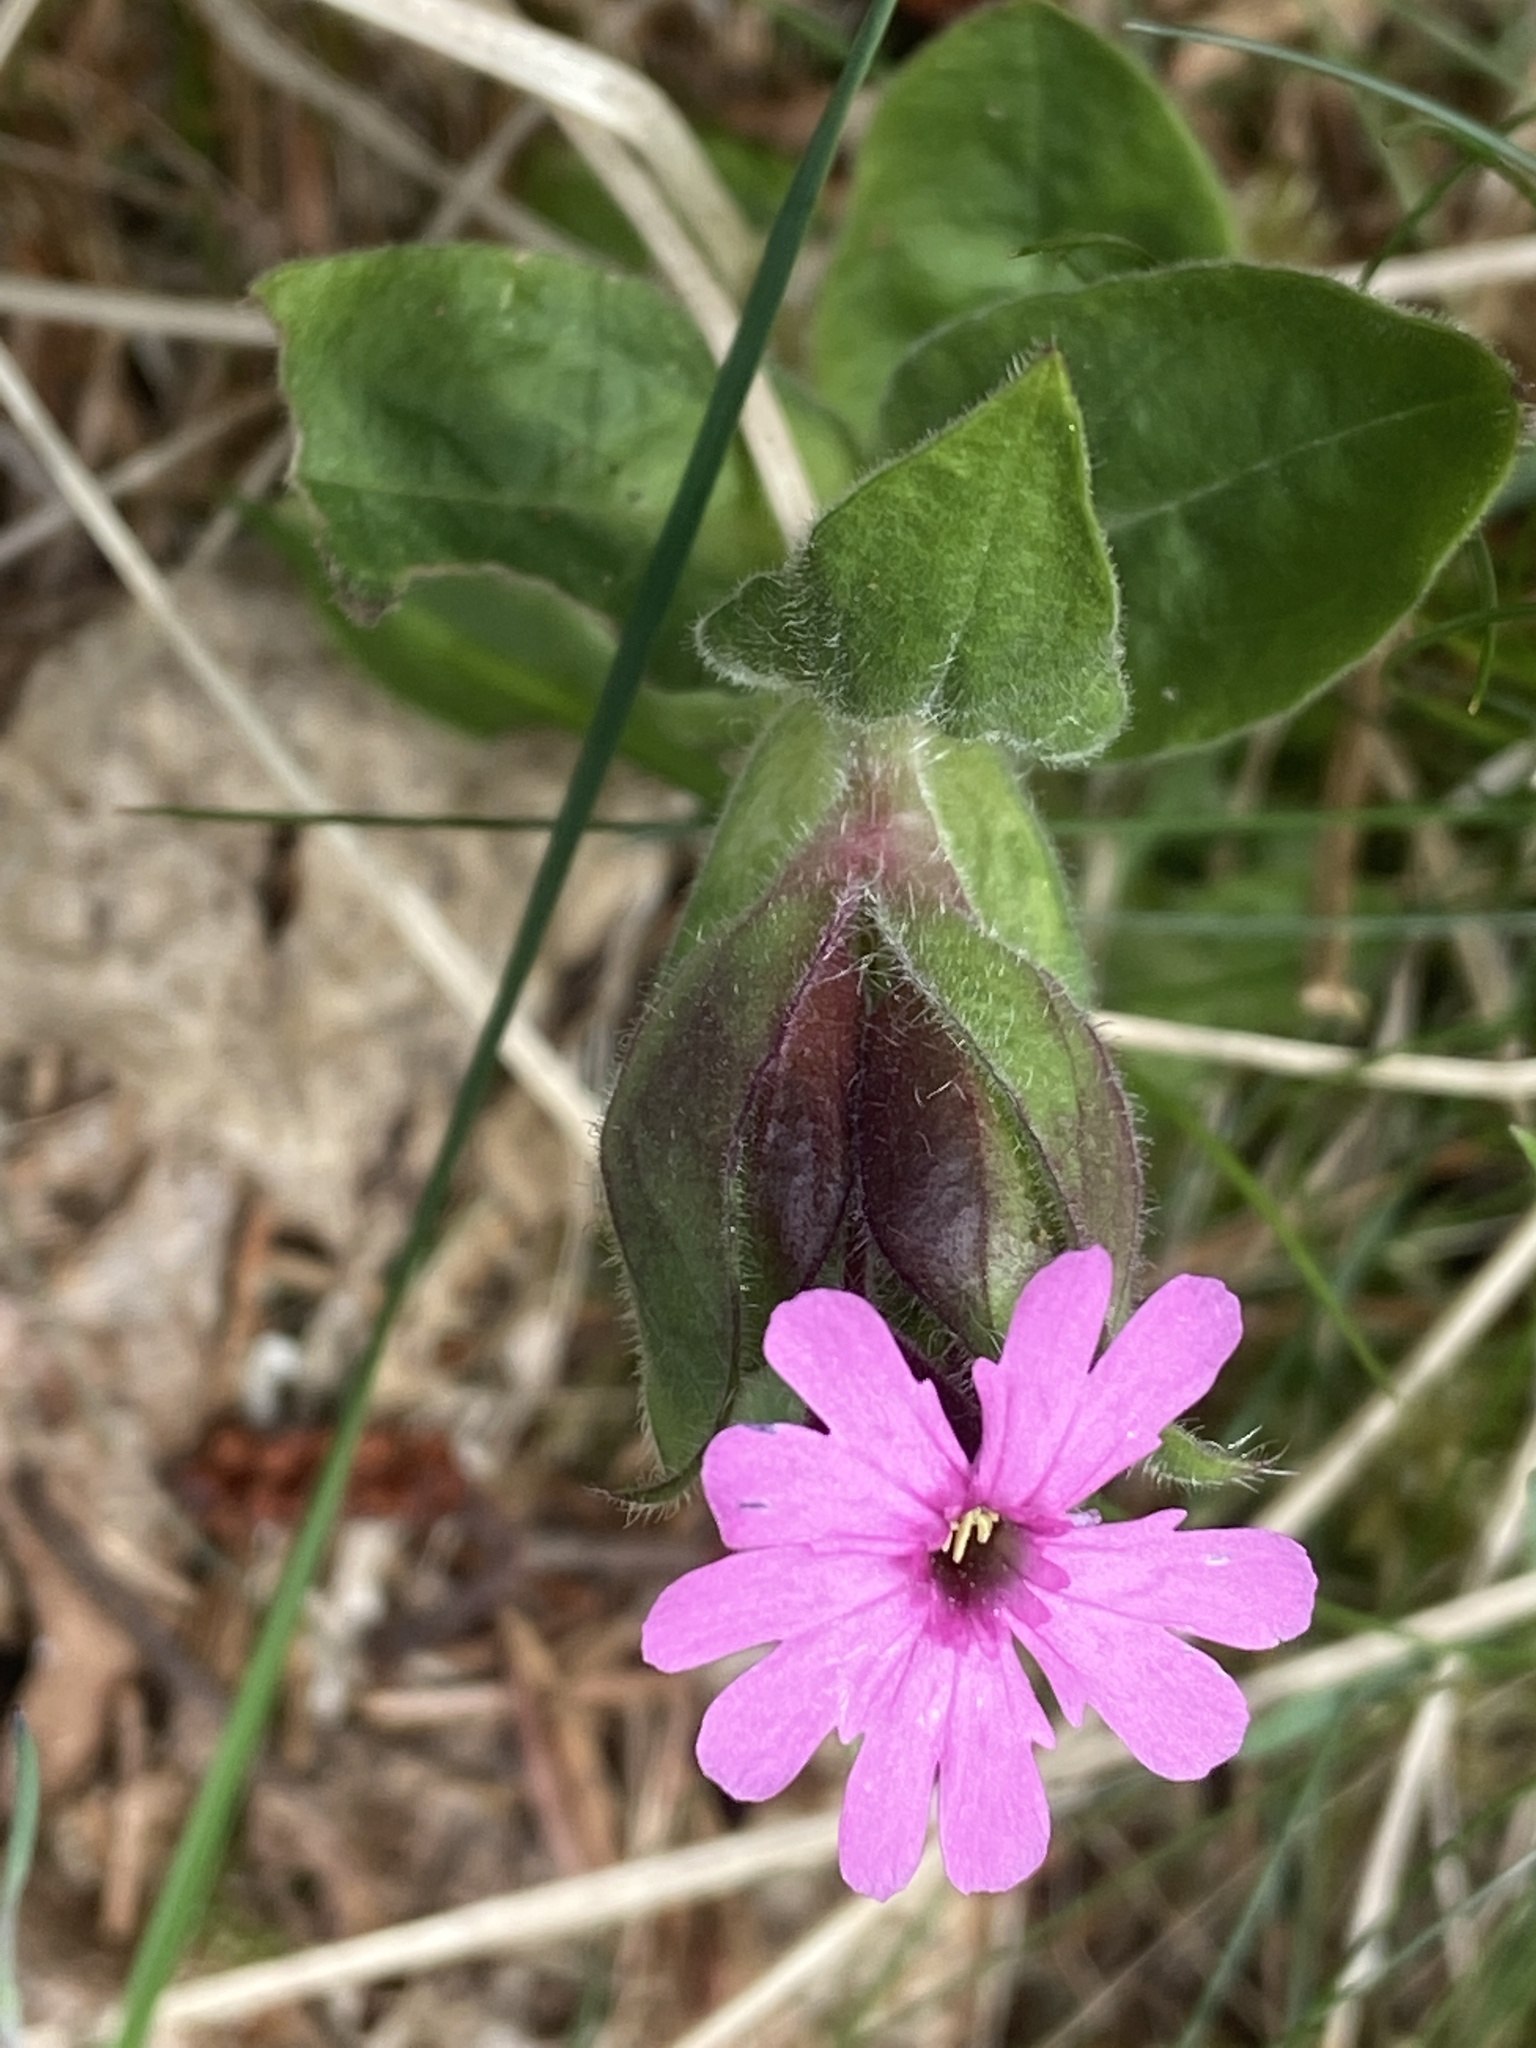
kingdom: Plantae
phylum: Tracheophyta
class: Magnoliopsida
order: Caryophyllales
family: Caryophyllaceae
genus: Silene
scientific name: Silene dioica
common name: Red campion
